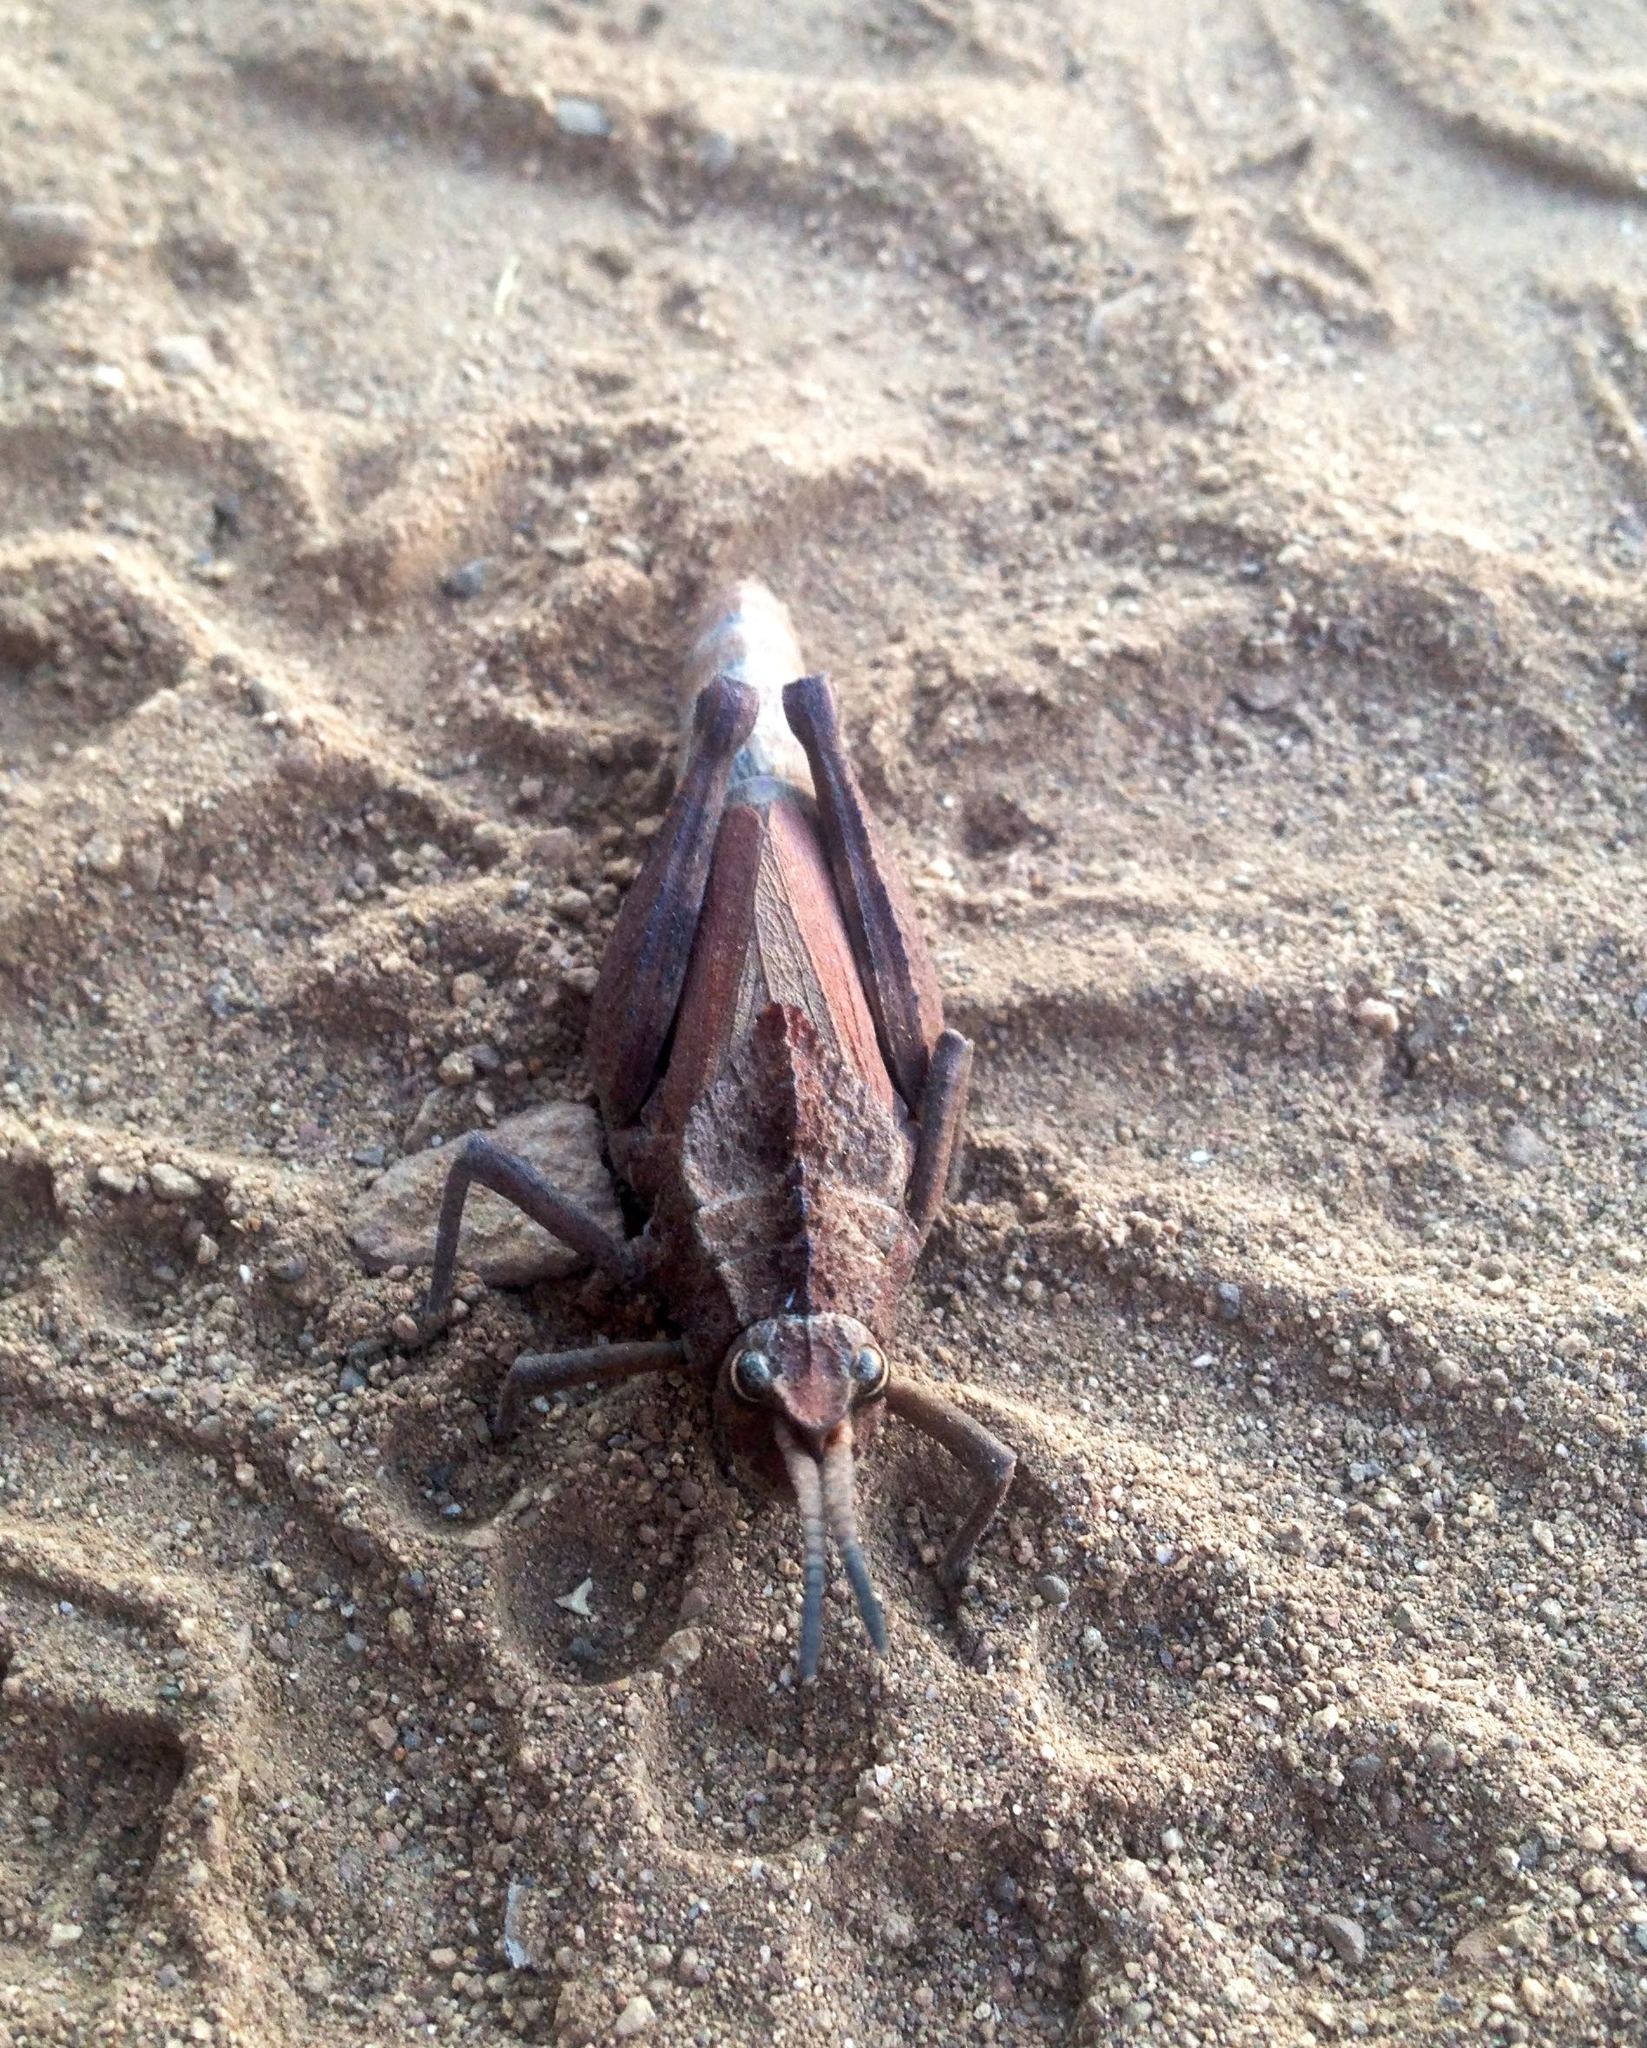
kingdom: Animalia
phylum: Arthropoda
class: Insecta
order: Orthoptera
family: Romaleidae
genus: Dracotettix
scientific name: Dracotettix monstrosus
